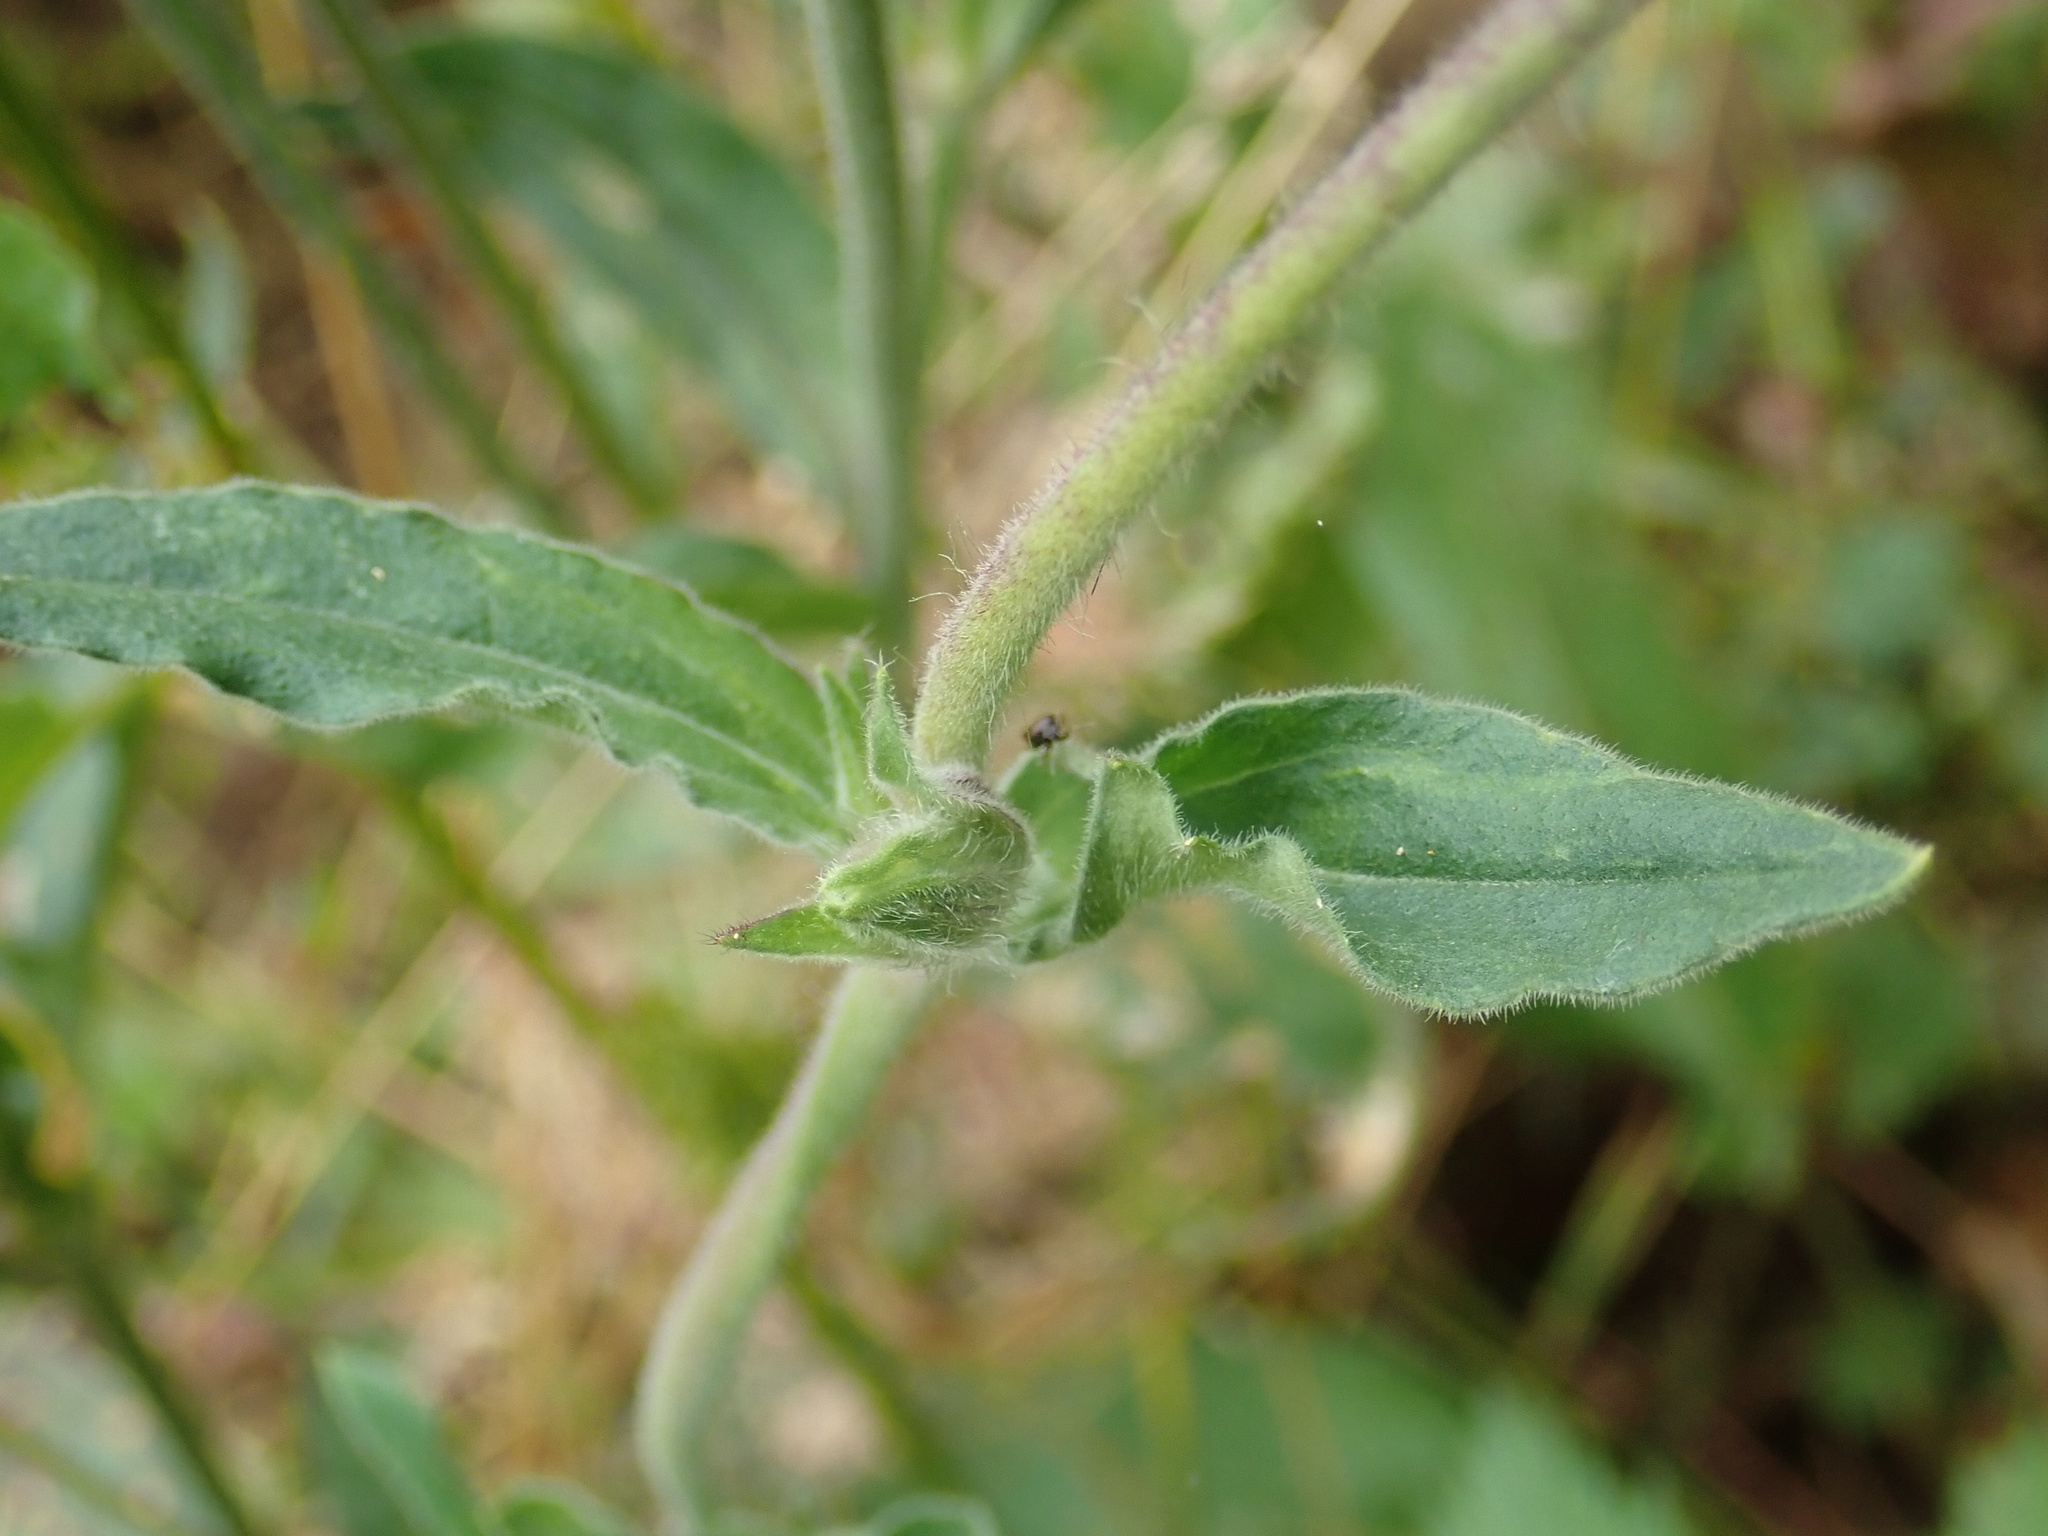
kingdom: Plantae
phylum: Tracheophyta
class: Magnoliopsida
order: Caryophyllales
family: Caryophyllaceae
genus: Silene
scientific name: Silene dioica
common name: Red campion
